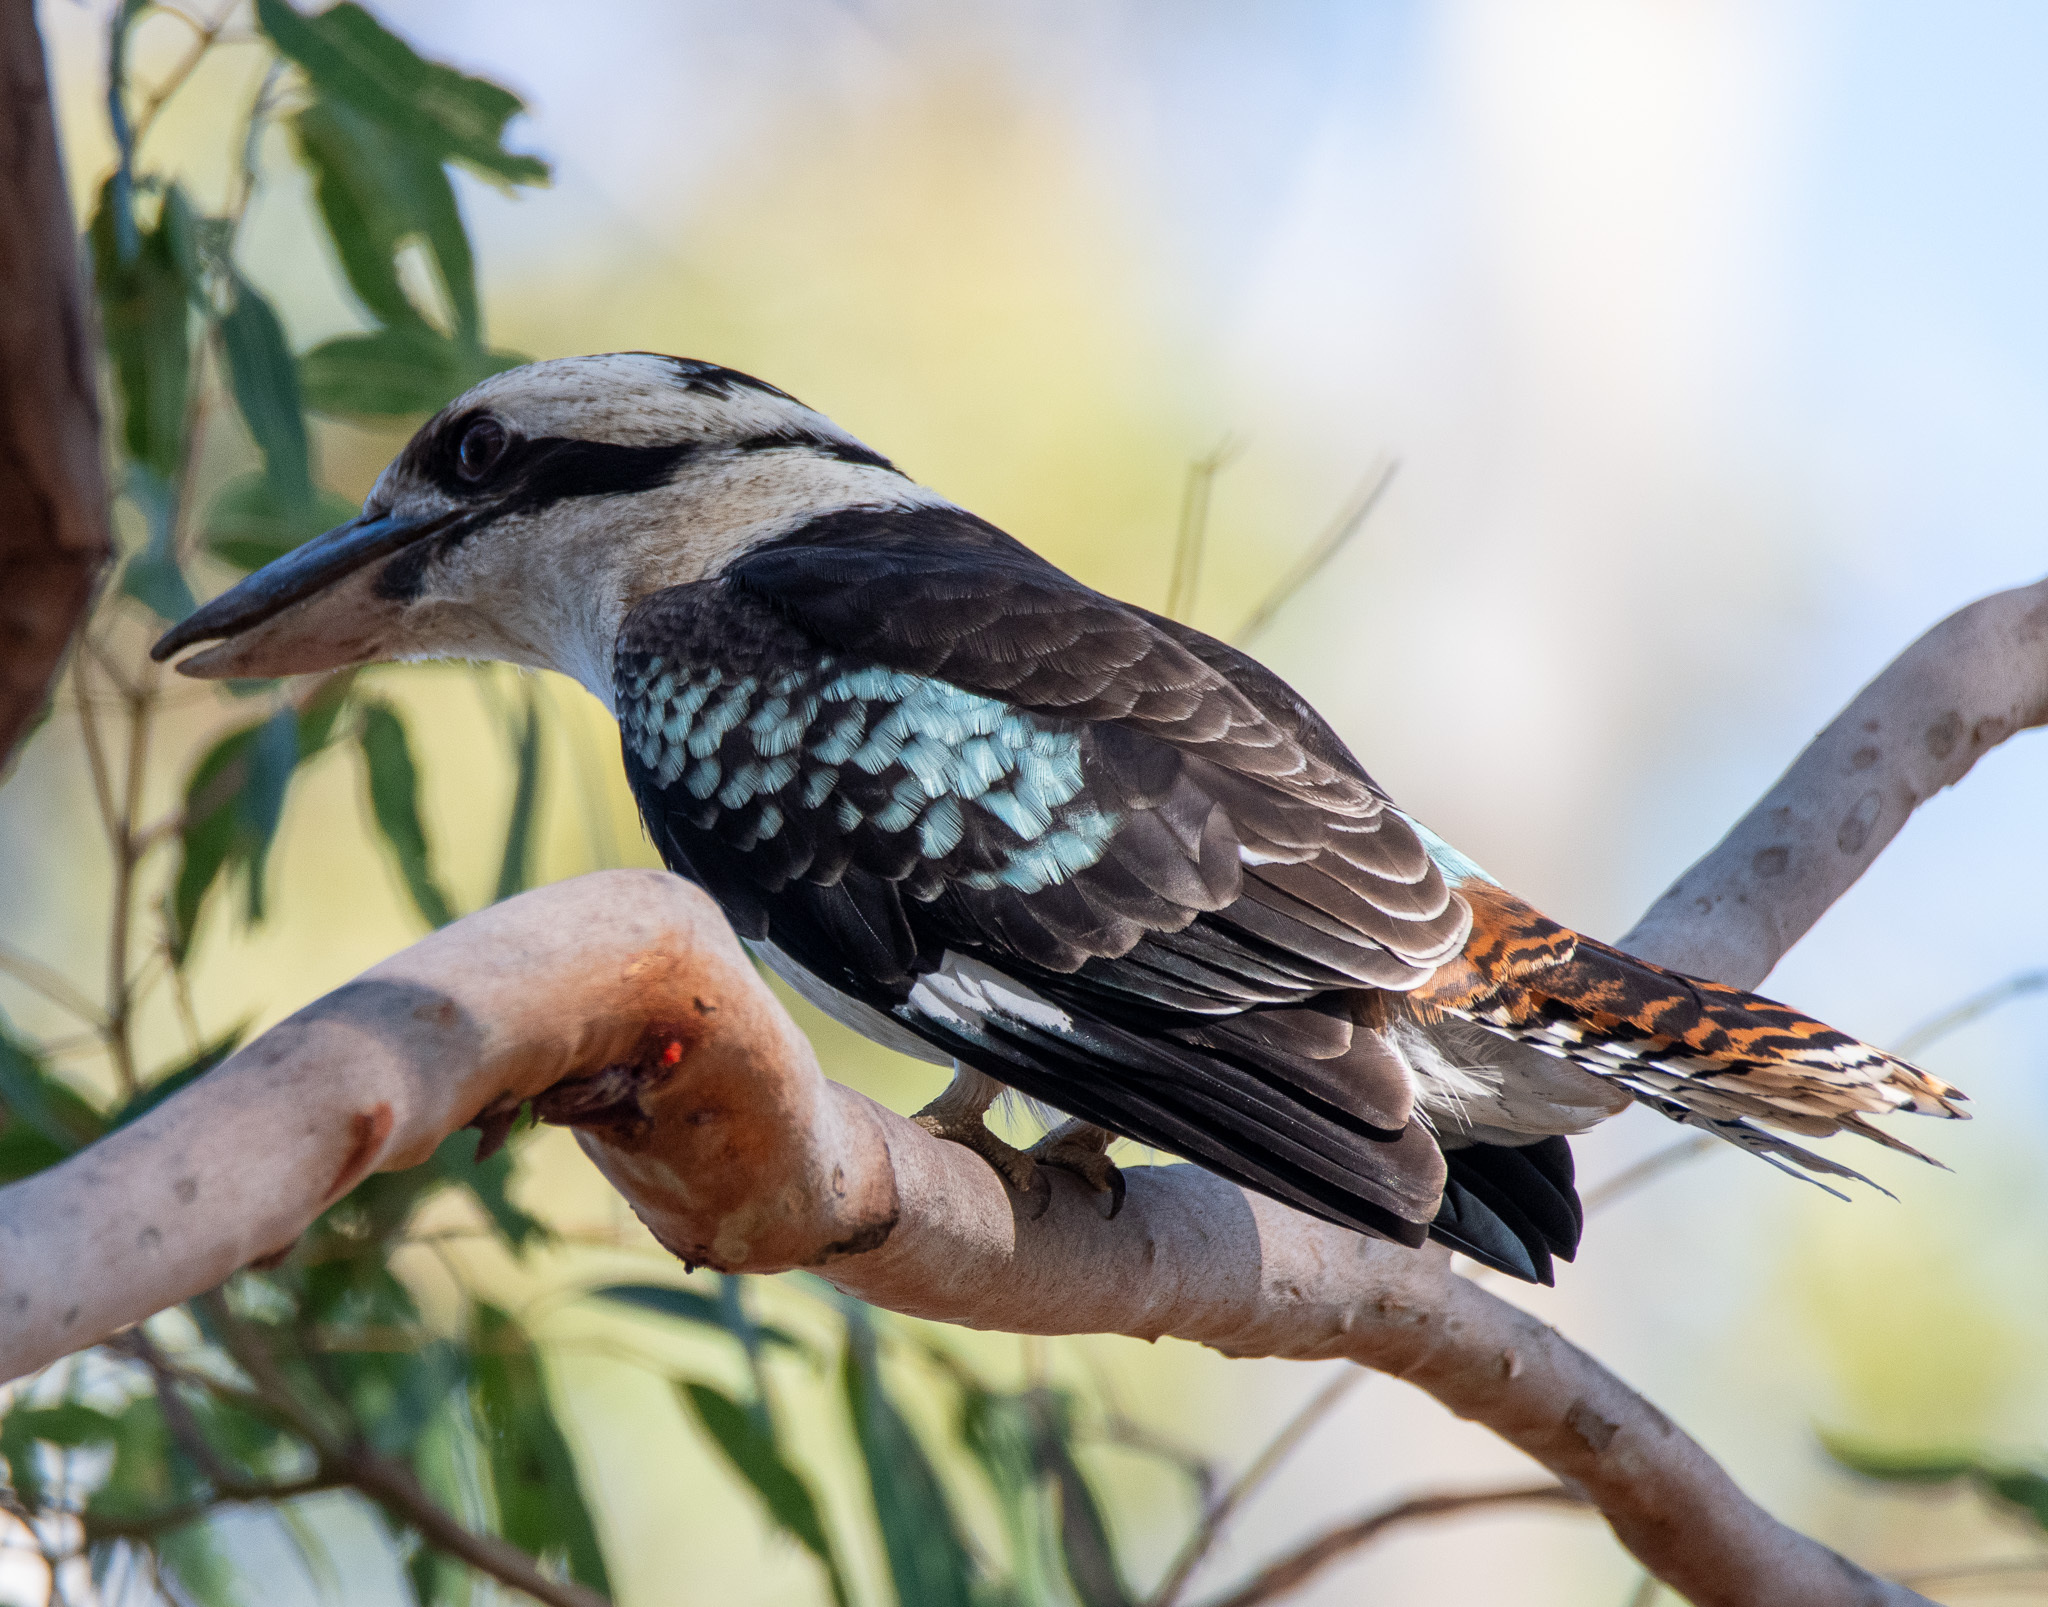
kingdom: Animalia
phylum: Chordata
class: Aves
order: Coraciiformes
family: Alcedinidae
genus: Dacelo
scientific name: Dacelo novaeguineae
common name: Laughing kookaburra
